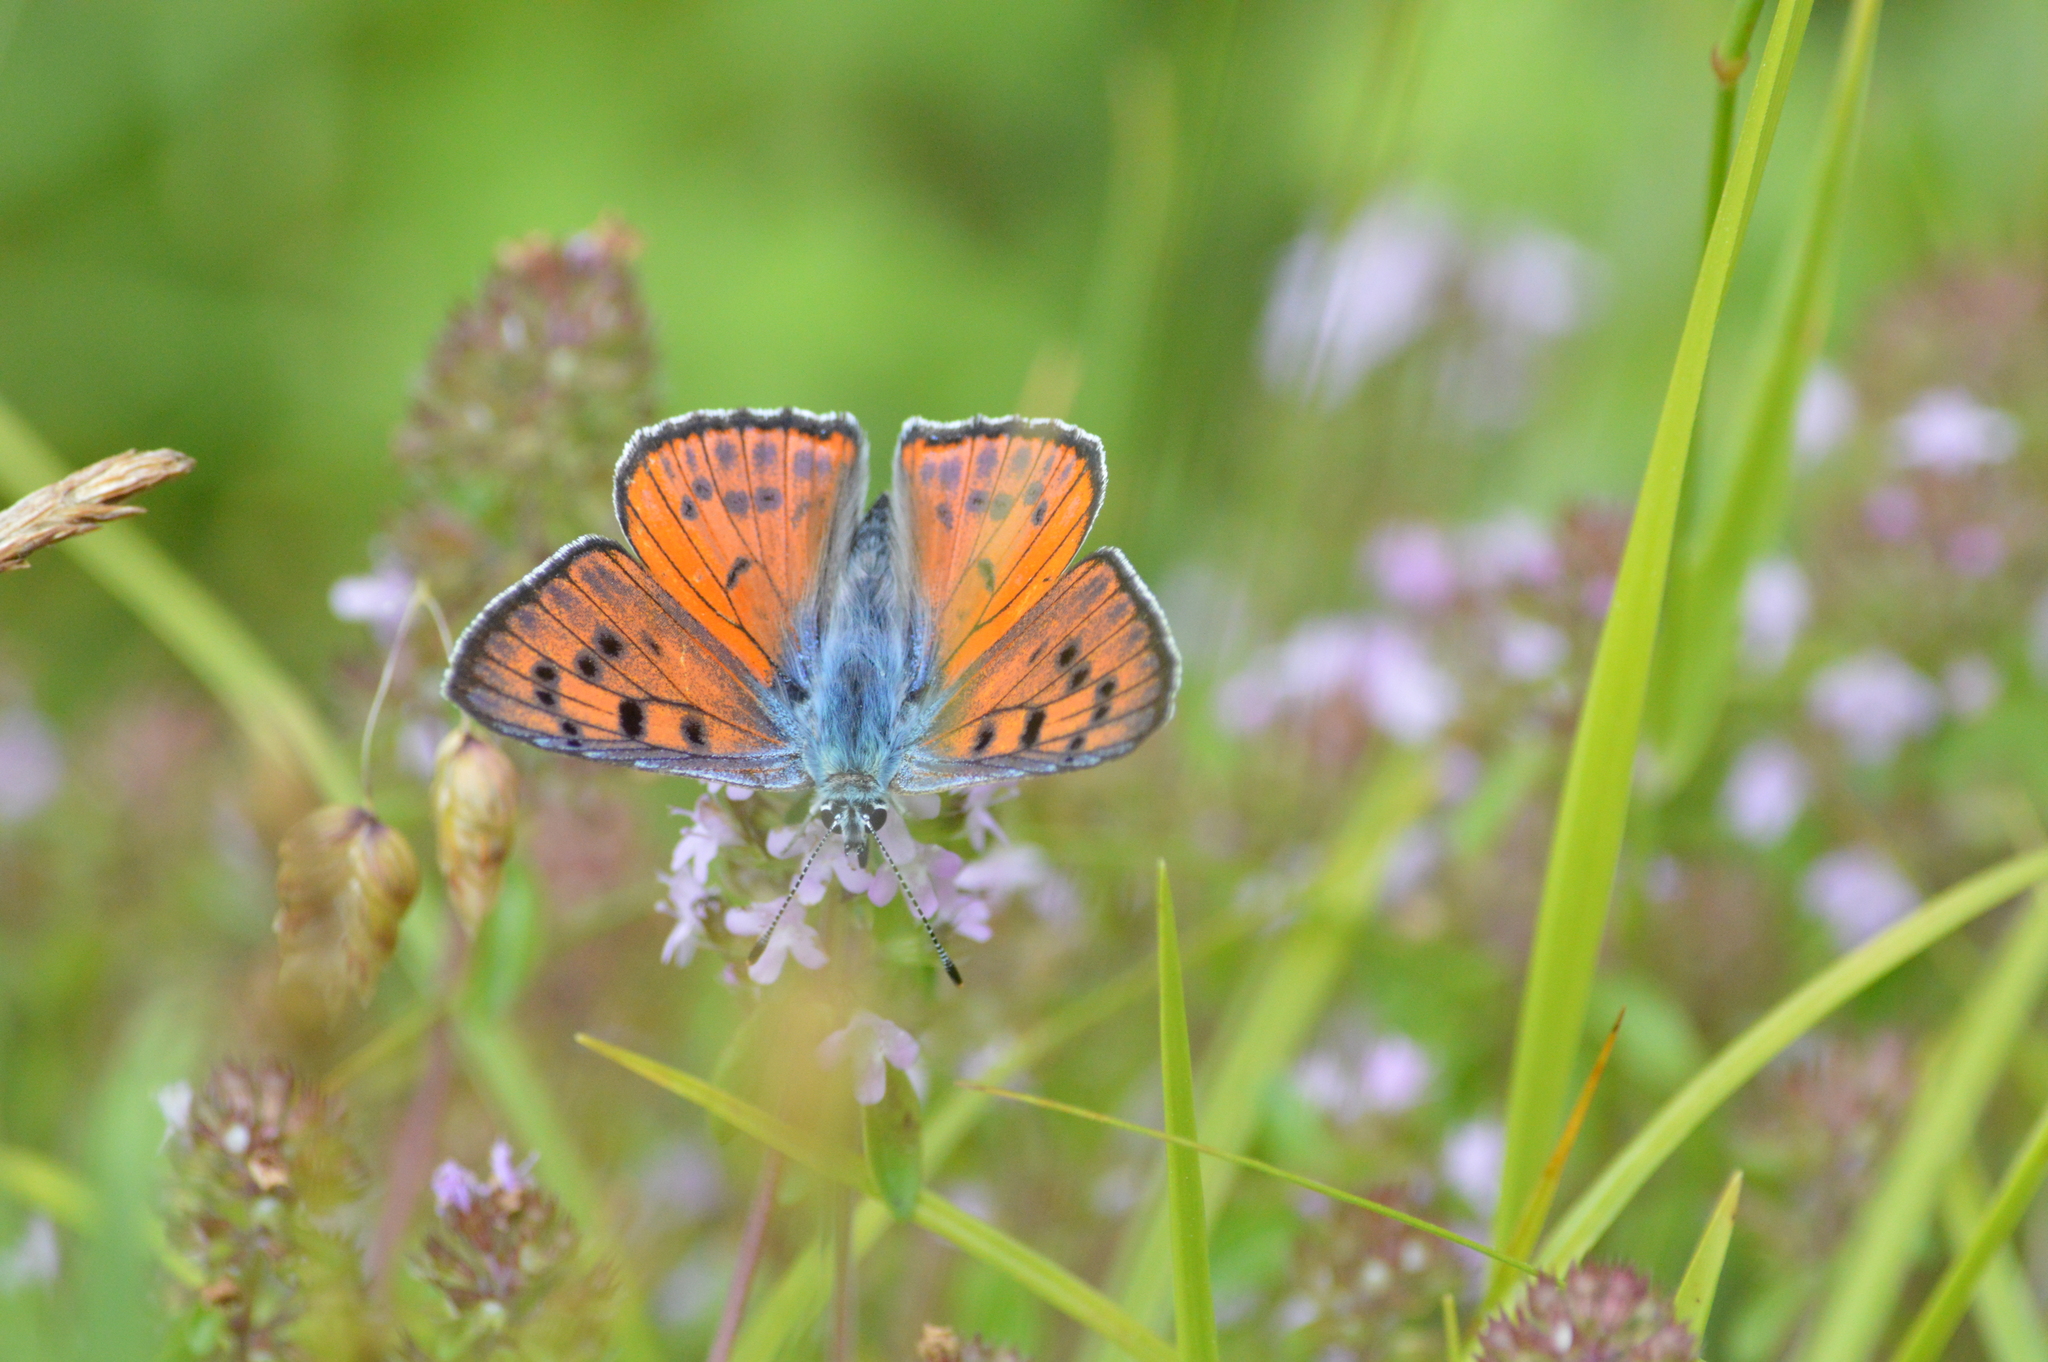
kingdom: Animalia
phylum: Arthropoda
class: Insecta
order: Lepidoptera
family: Lycaenidae
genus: Lycaena
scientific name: Lycaena alciphron
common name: Purple-shot copper
